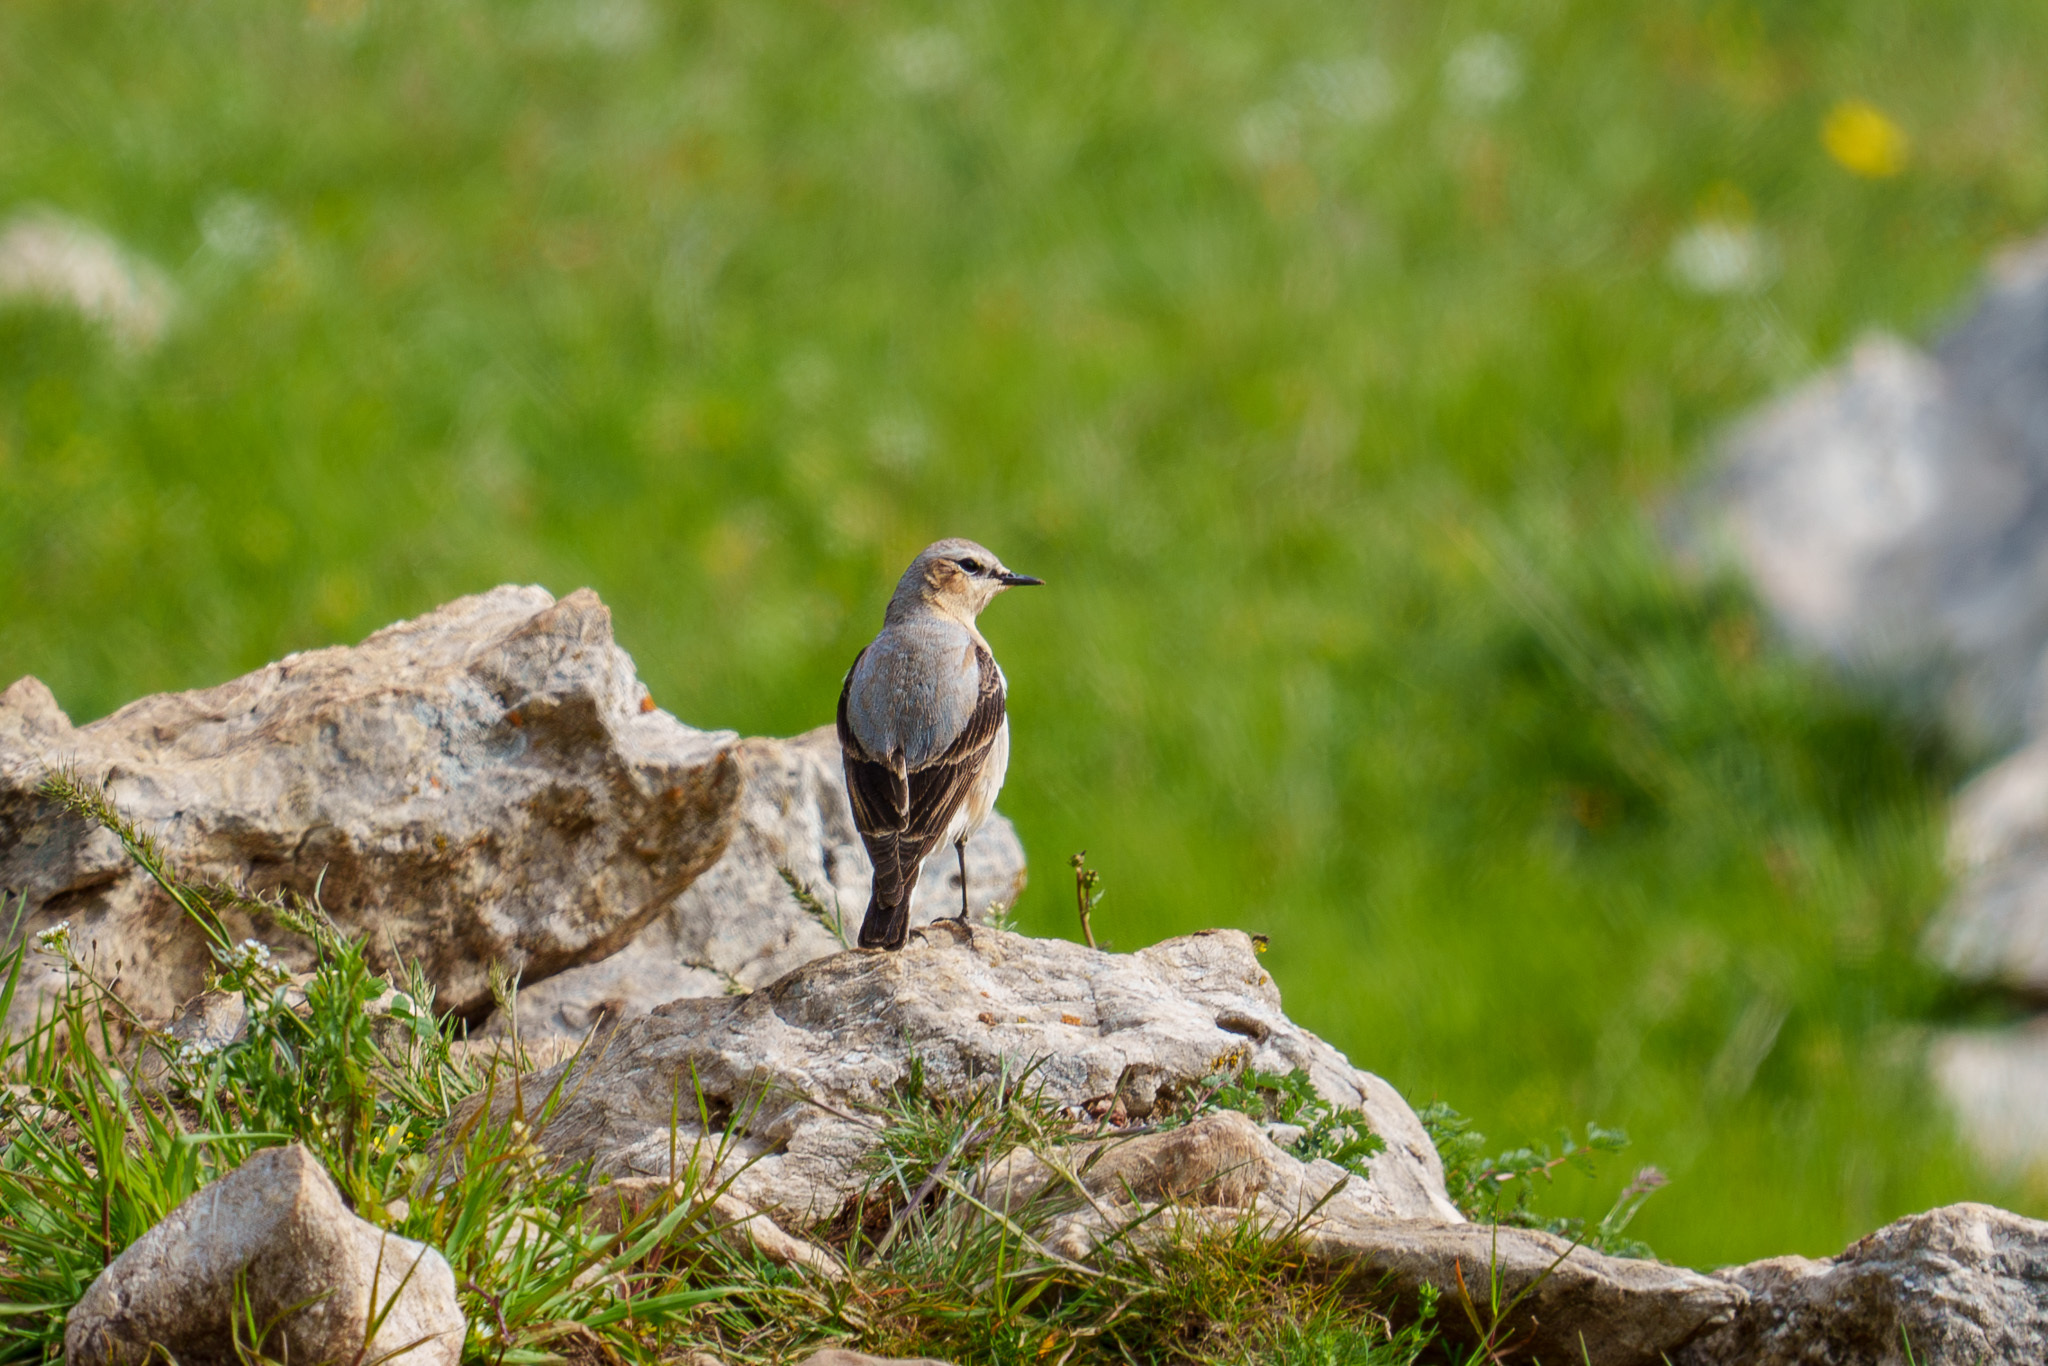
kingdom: Animalia
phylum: Chordata
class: Aves
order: Passeriformes
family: Muscicapidae
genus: Oenanthe
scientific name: Oenanthe oenanthe
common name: Northern wheatear
